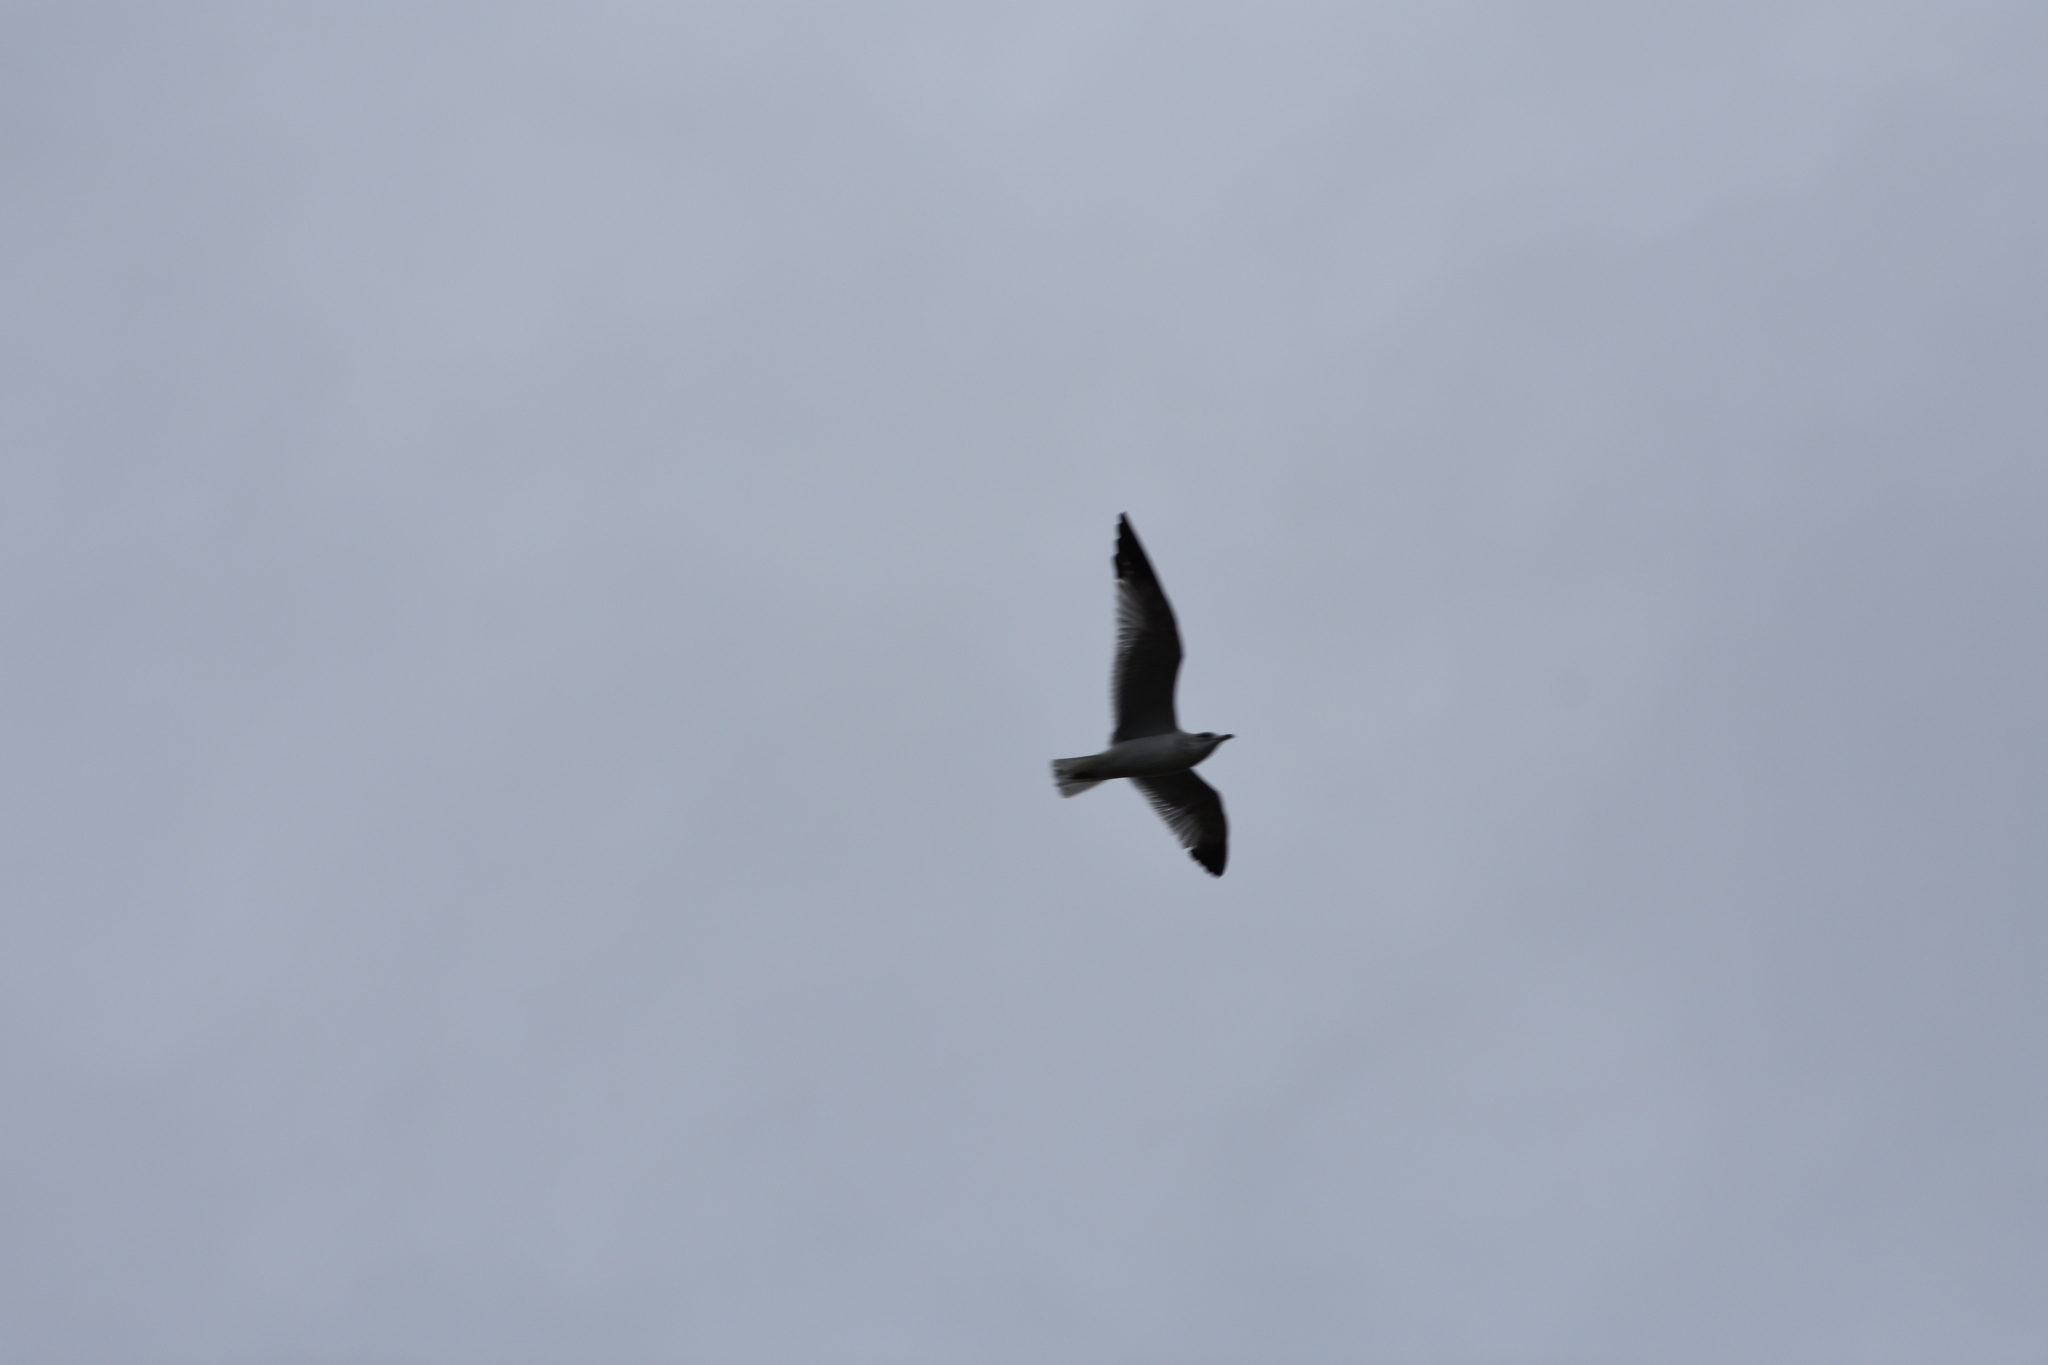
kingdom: Animalia
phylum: Chordata
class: Aves
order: Charadriiformes
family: Laridae
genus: Leucophaeus
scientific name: Leucophaeus atricilla
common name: Laughing gull
